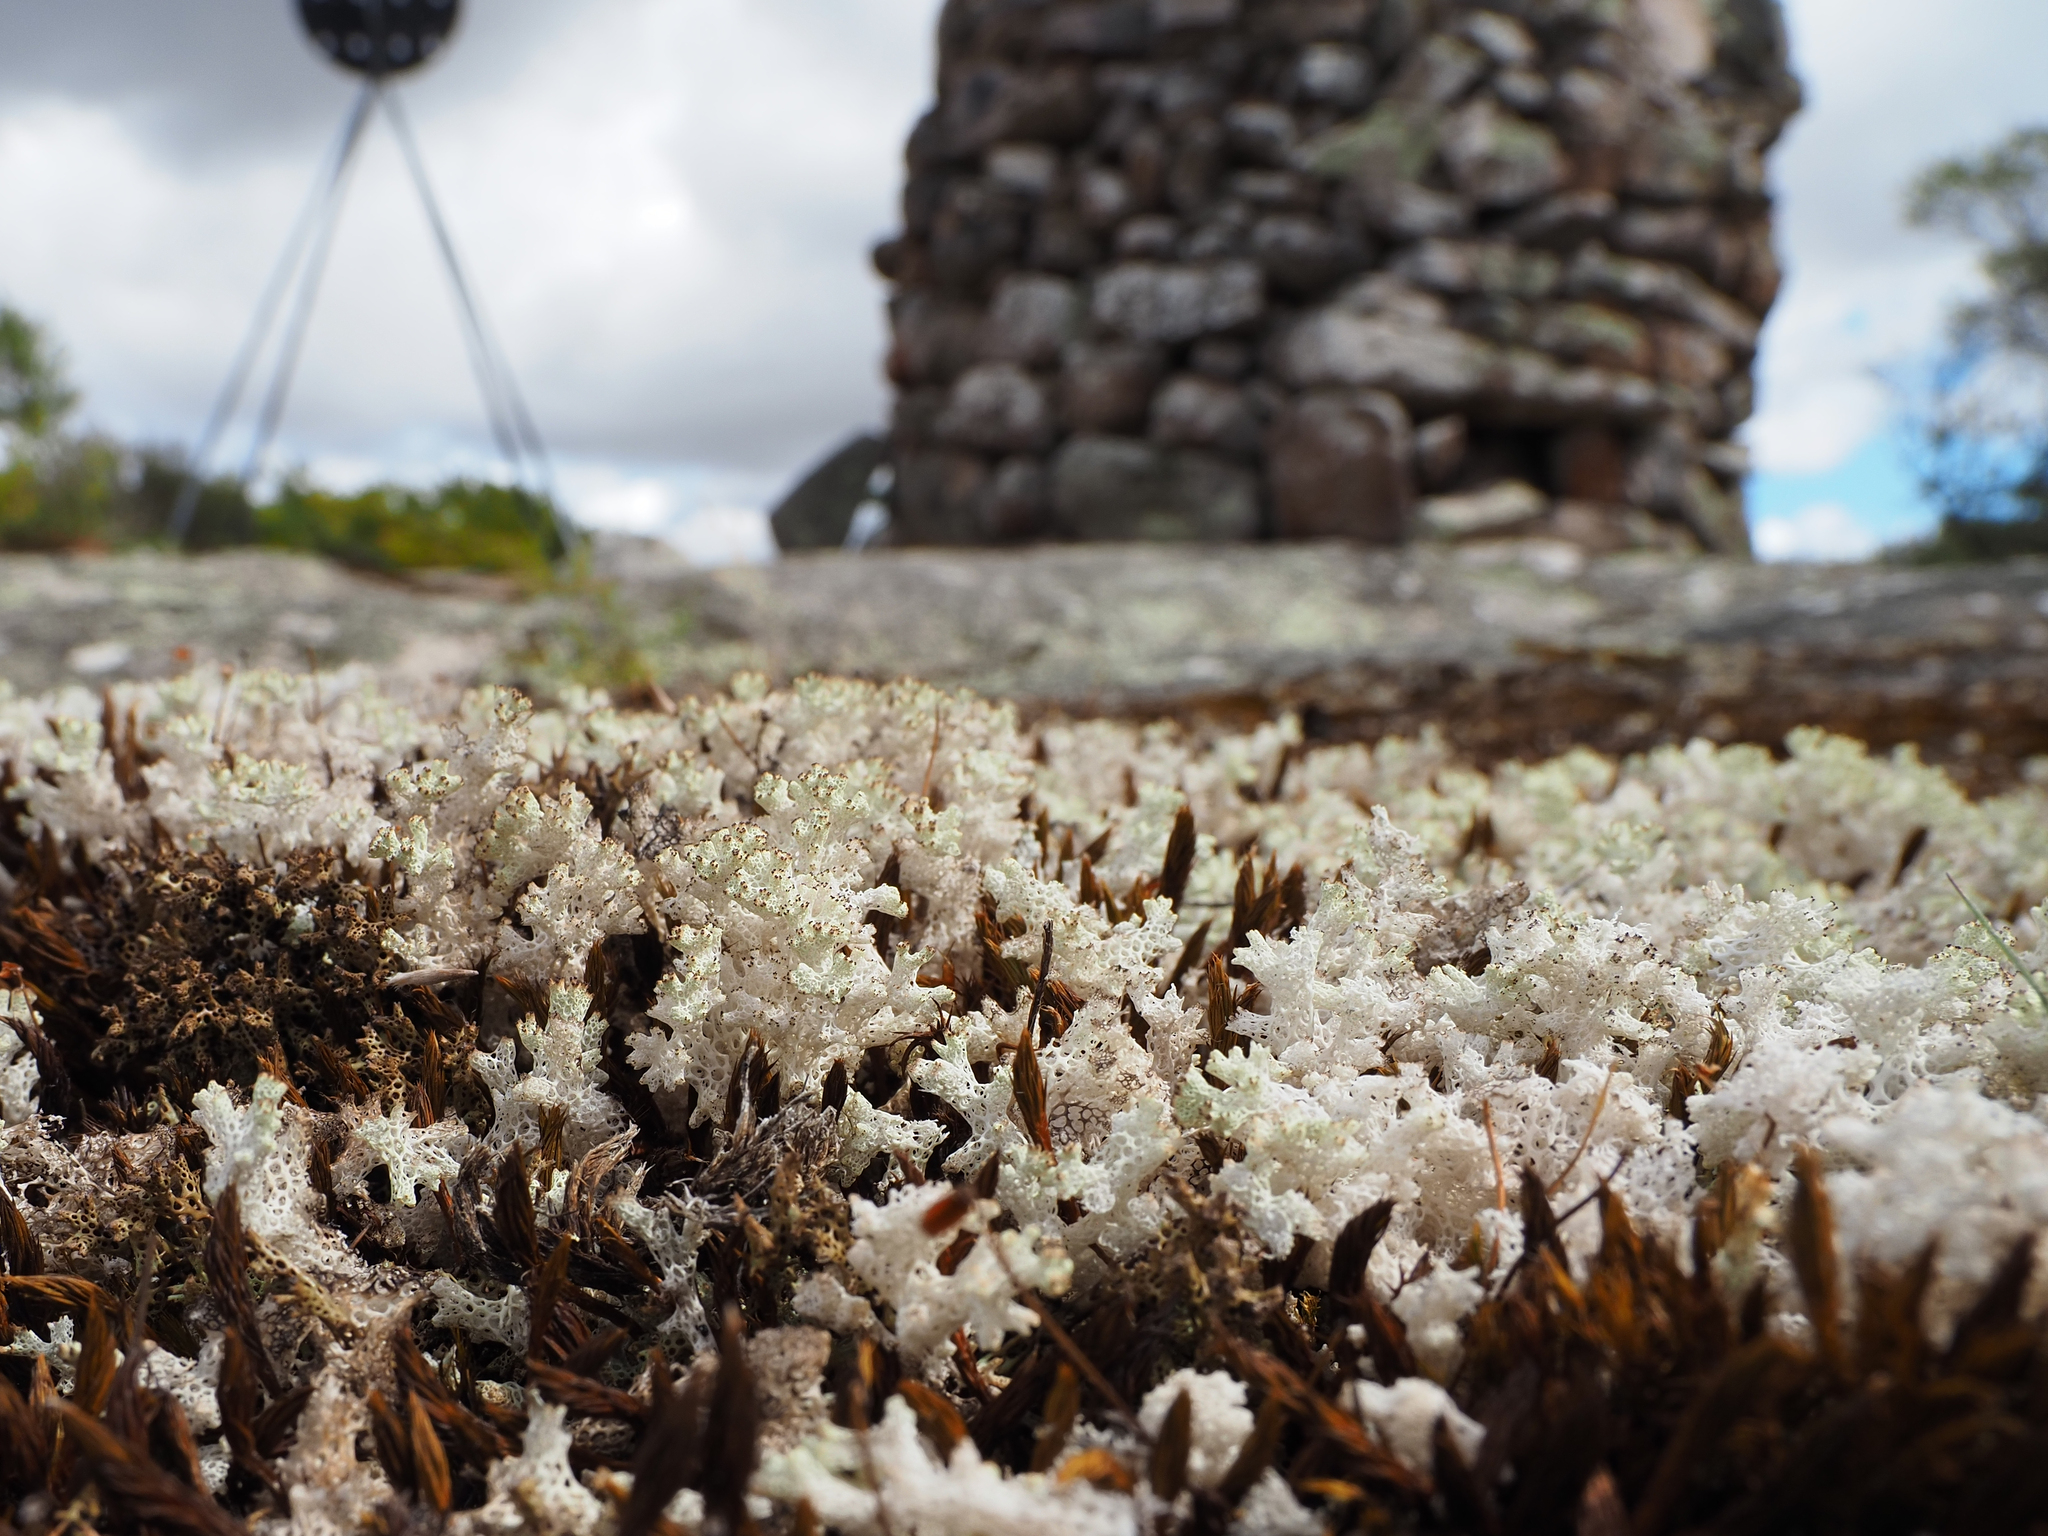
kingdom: Fungi
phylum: Ascomycota
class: Lecanoromycetes
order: Lecanorales
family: Cladoniaceae
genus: Pulchrocladia
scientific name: Pulchrocladia retipora
